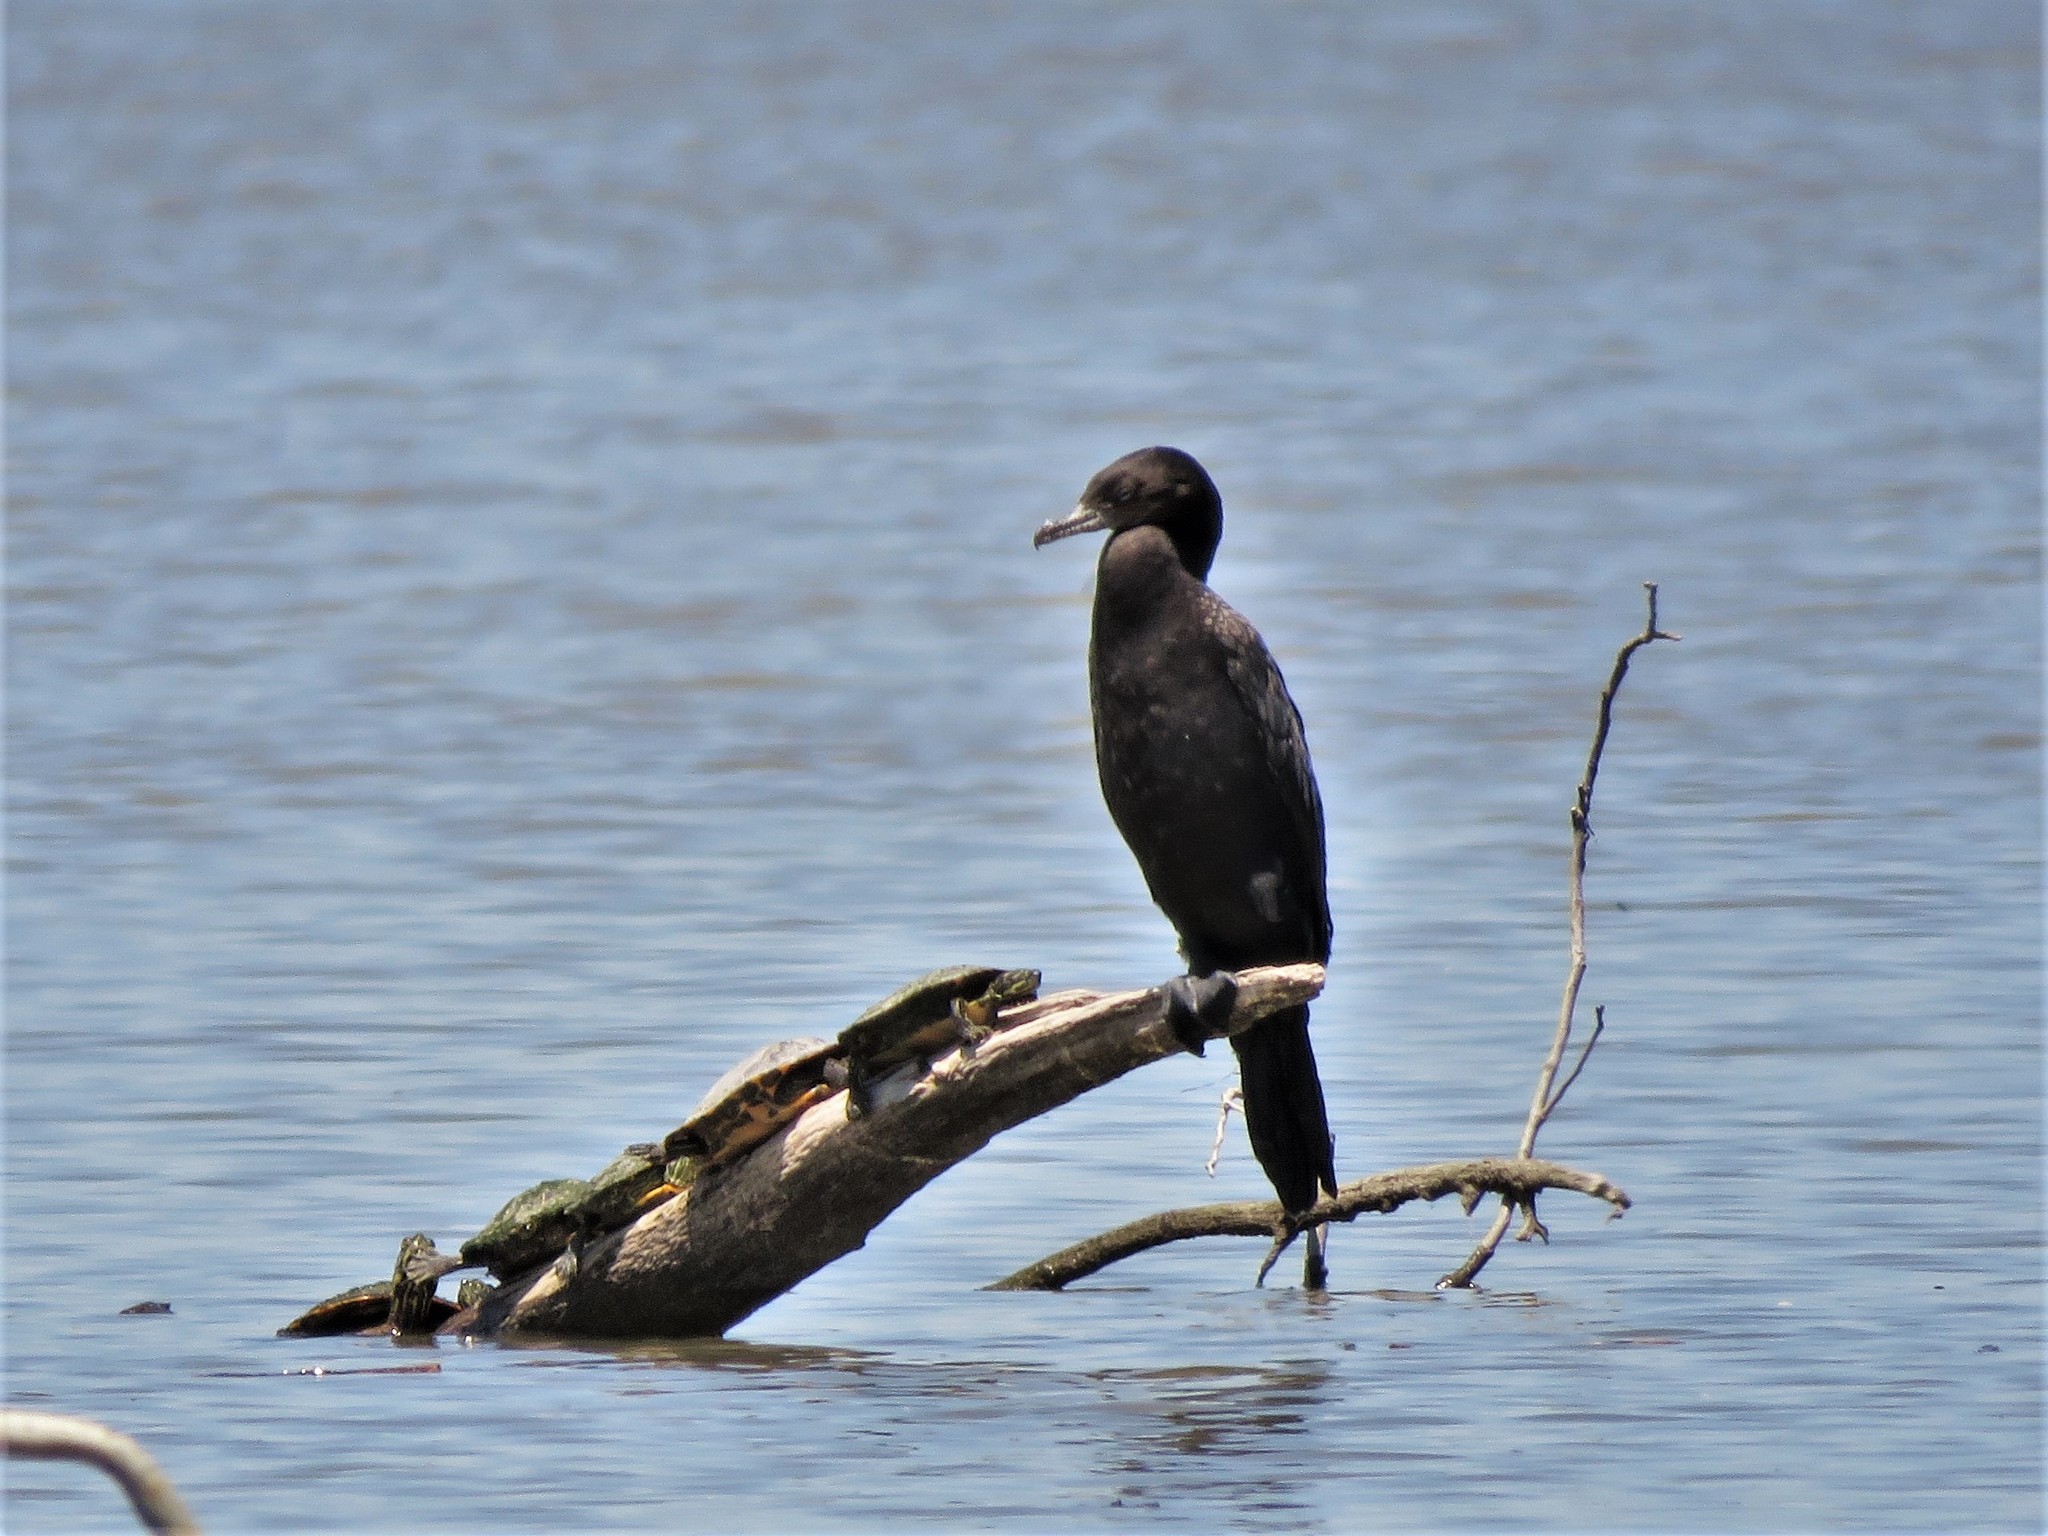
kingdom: Animalia
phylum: Chordata
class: Aves
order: Suliformes
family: Phalacrocoracidae
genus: Phalacrocorax
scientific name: Phalacrocorax brasilianus
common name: Neotropic cormorant
